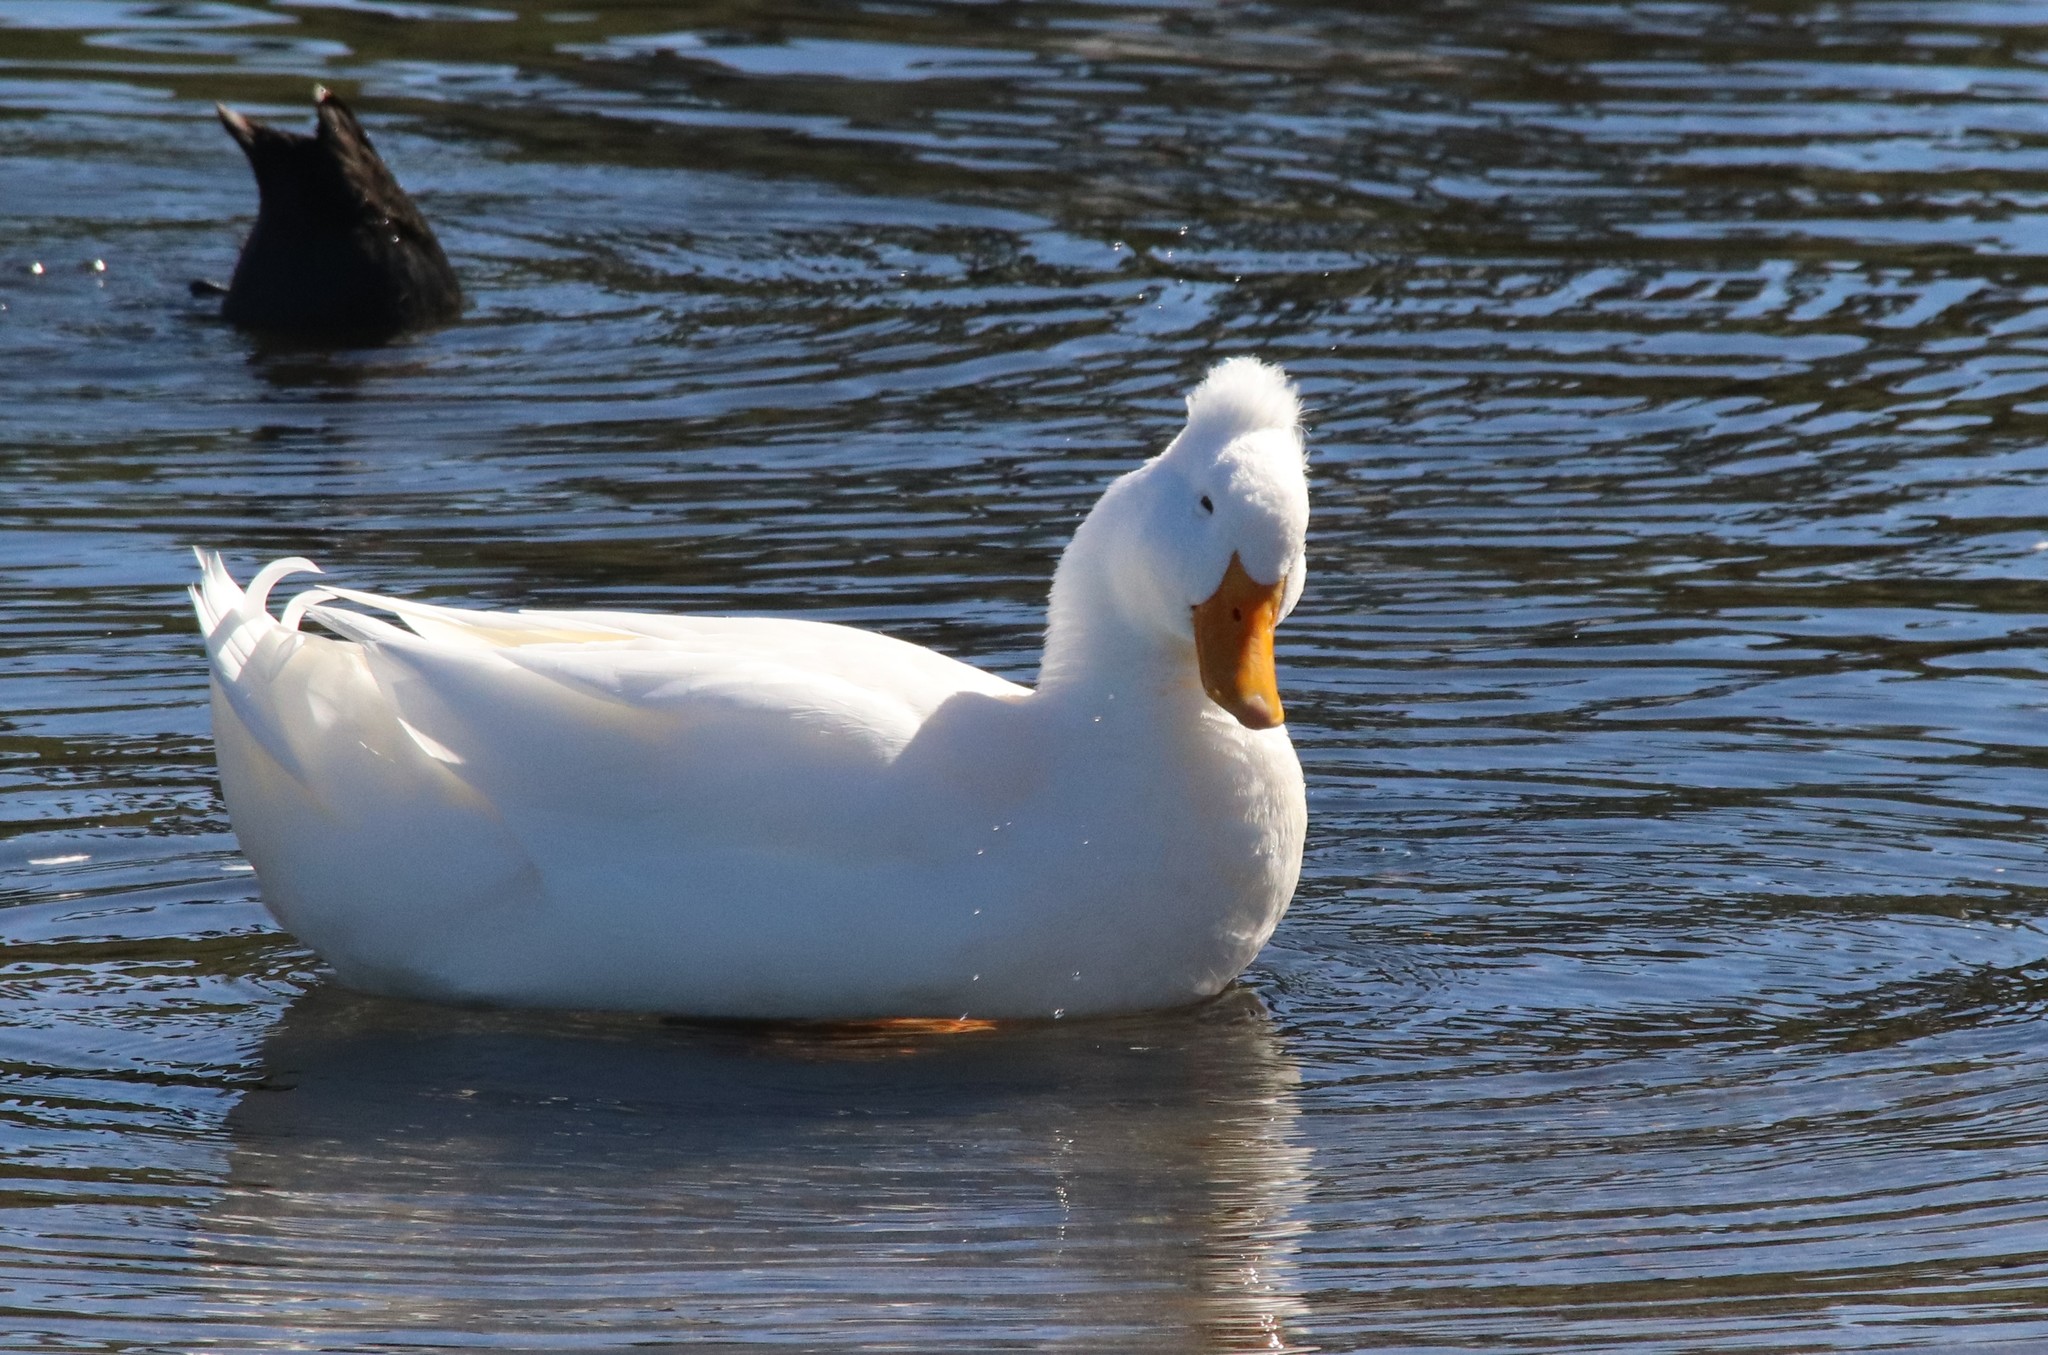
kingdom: Animalia
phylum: Chordata
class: Aves
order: Anseriformes
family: Anatidae
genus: Anas
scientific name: Anas platyrhynchos
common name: Mallard
